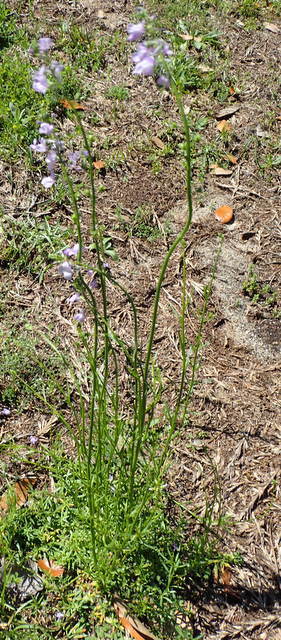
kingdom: Plantae
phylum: Tracheophyta
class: Magnoliopsida
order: Lamiales
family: Plantaginaceae
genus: Nuttallanthus
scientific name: Nuttallanthus canadensis
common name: Blue toadflax
